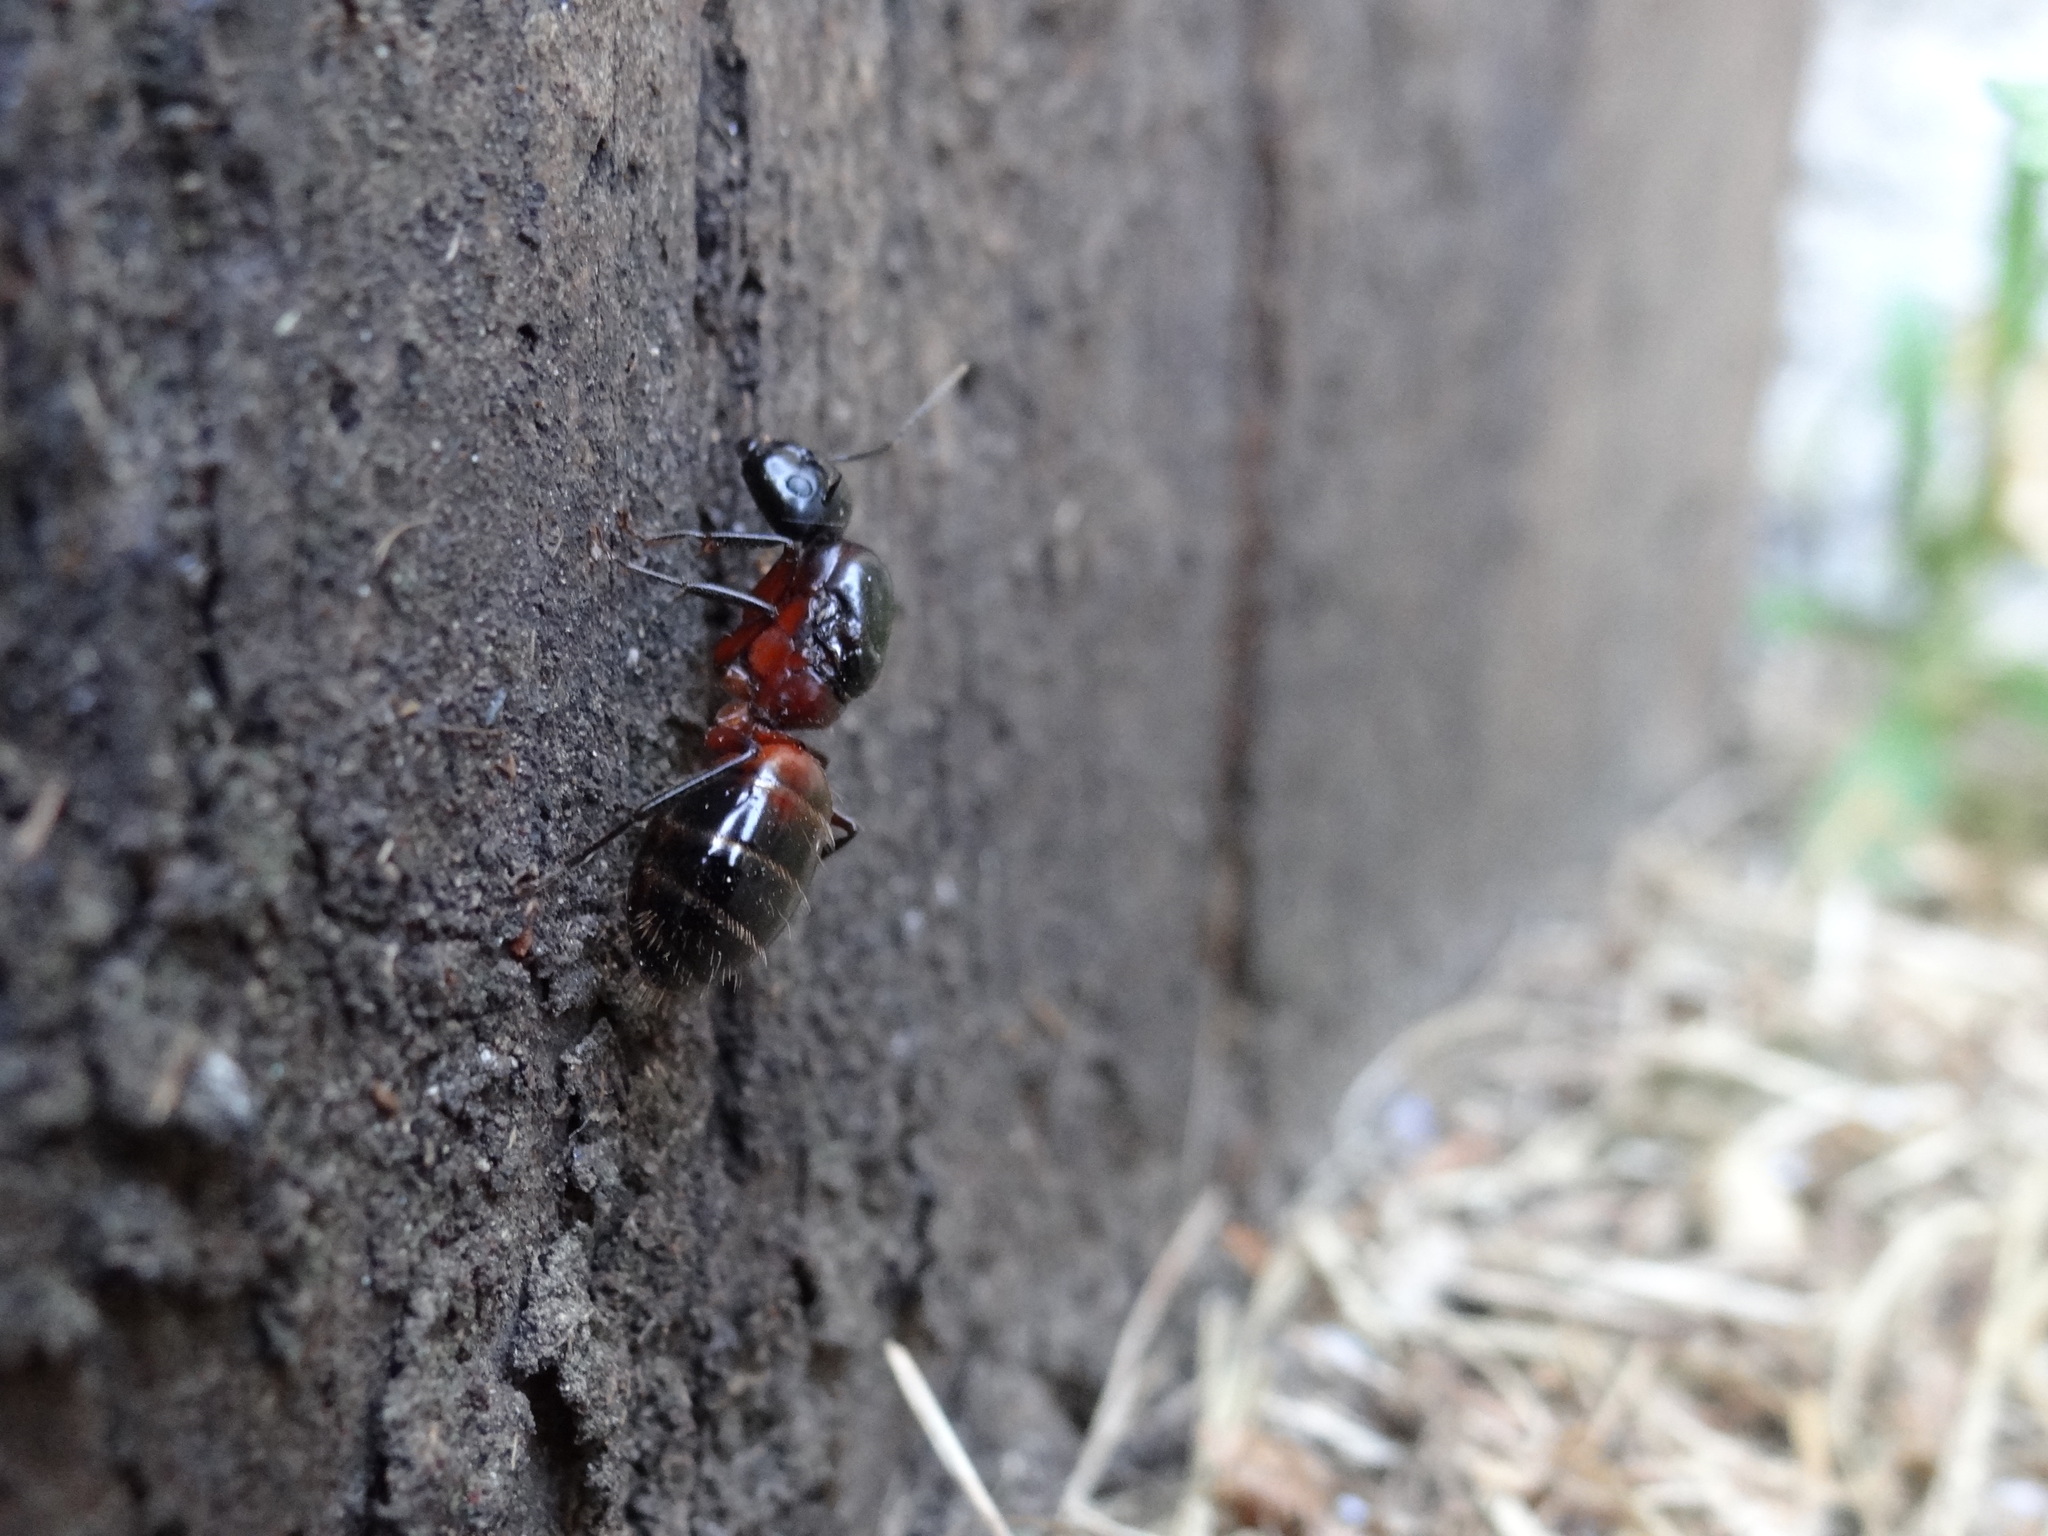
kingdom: Animalia
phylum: Arthropoda
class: Insecta
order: Hymenoptera
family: Formicidae
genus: Camponotus
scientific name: Camponotus ligniperdus
